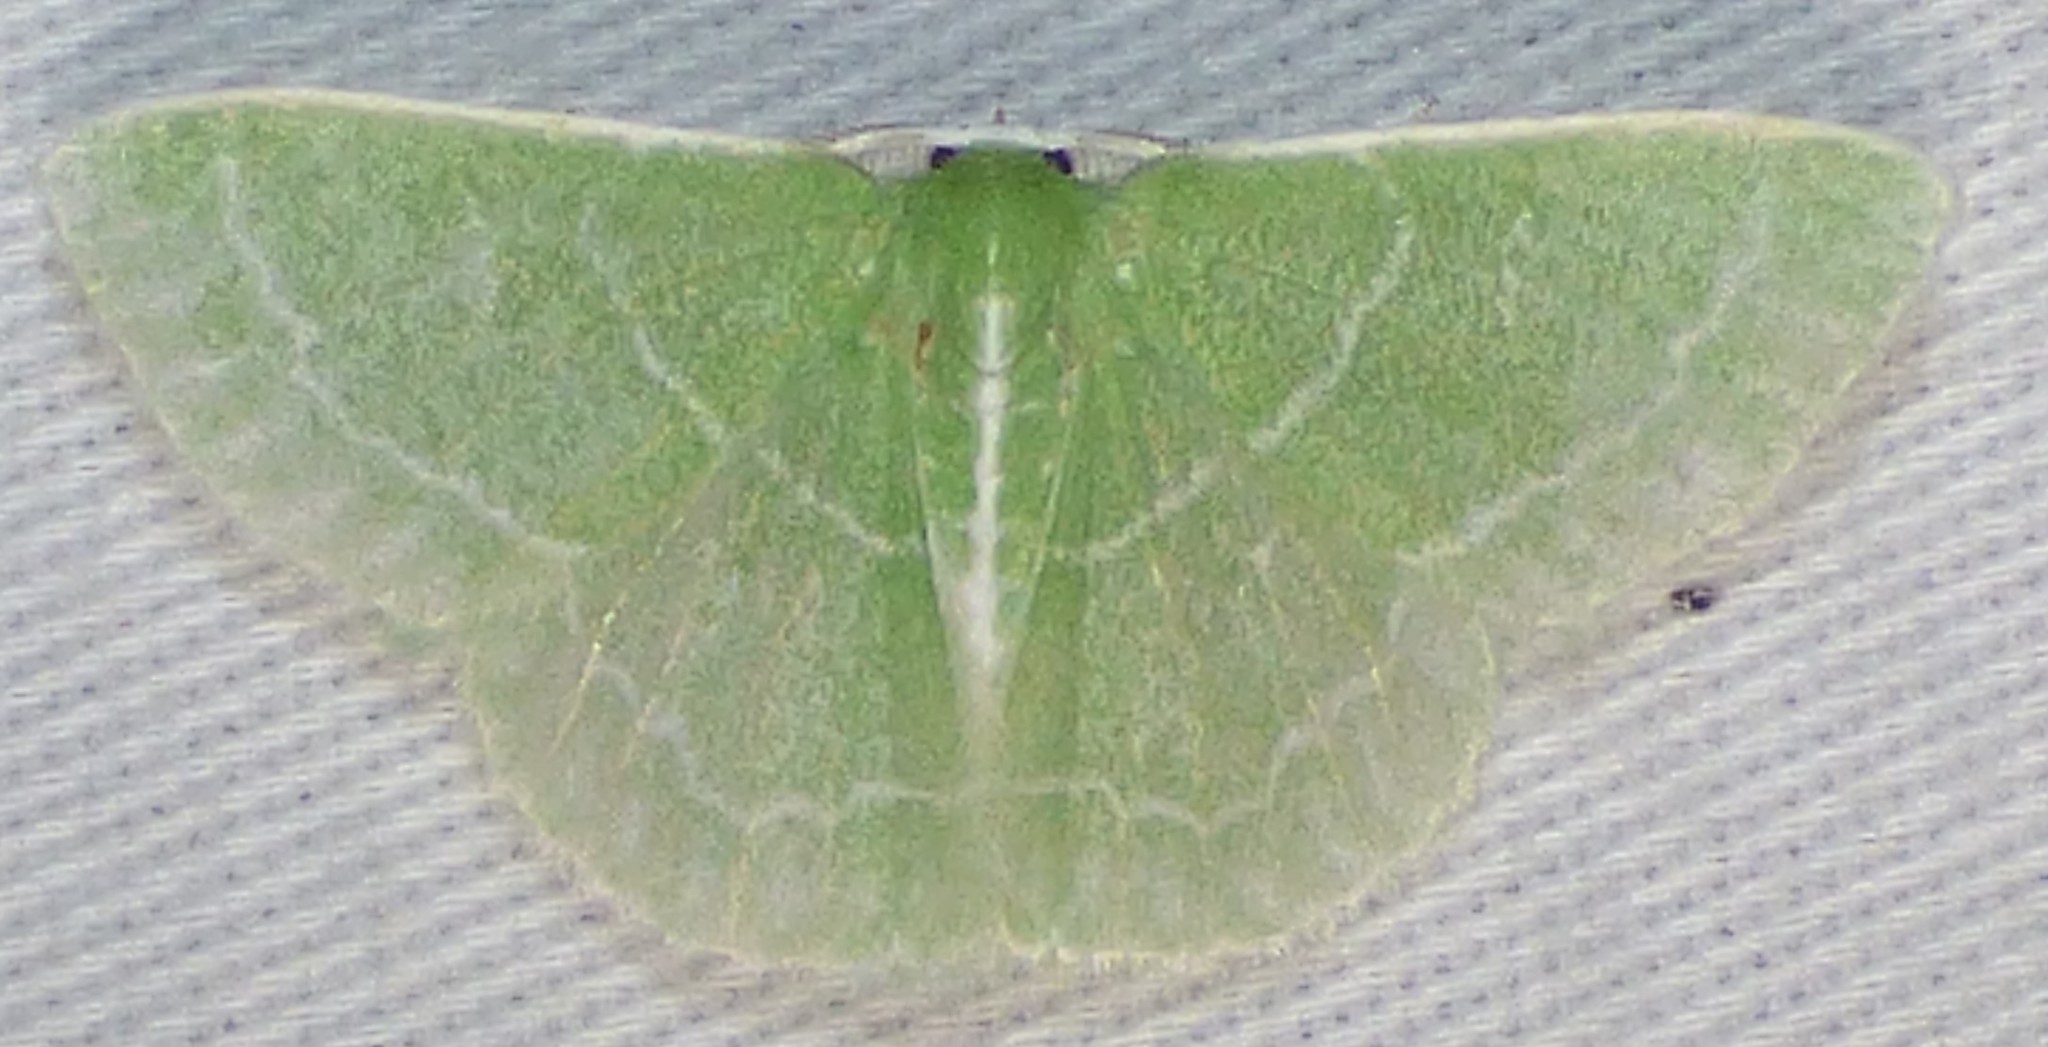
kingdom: Animalia
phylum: Arthropoda
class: Insecta
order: Lepidoptera
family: Geometridae
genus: Synchlora
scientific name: Synchlora aerata
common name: Wavy-lined emerald
